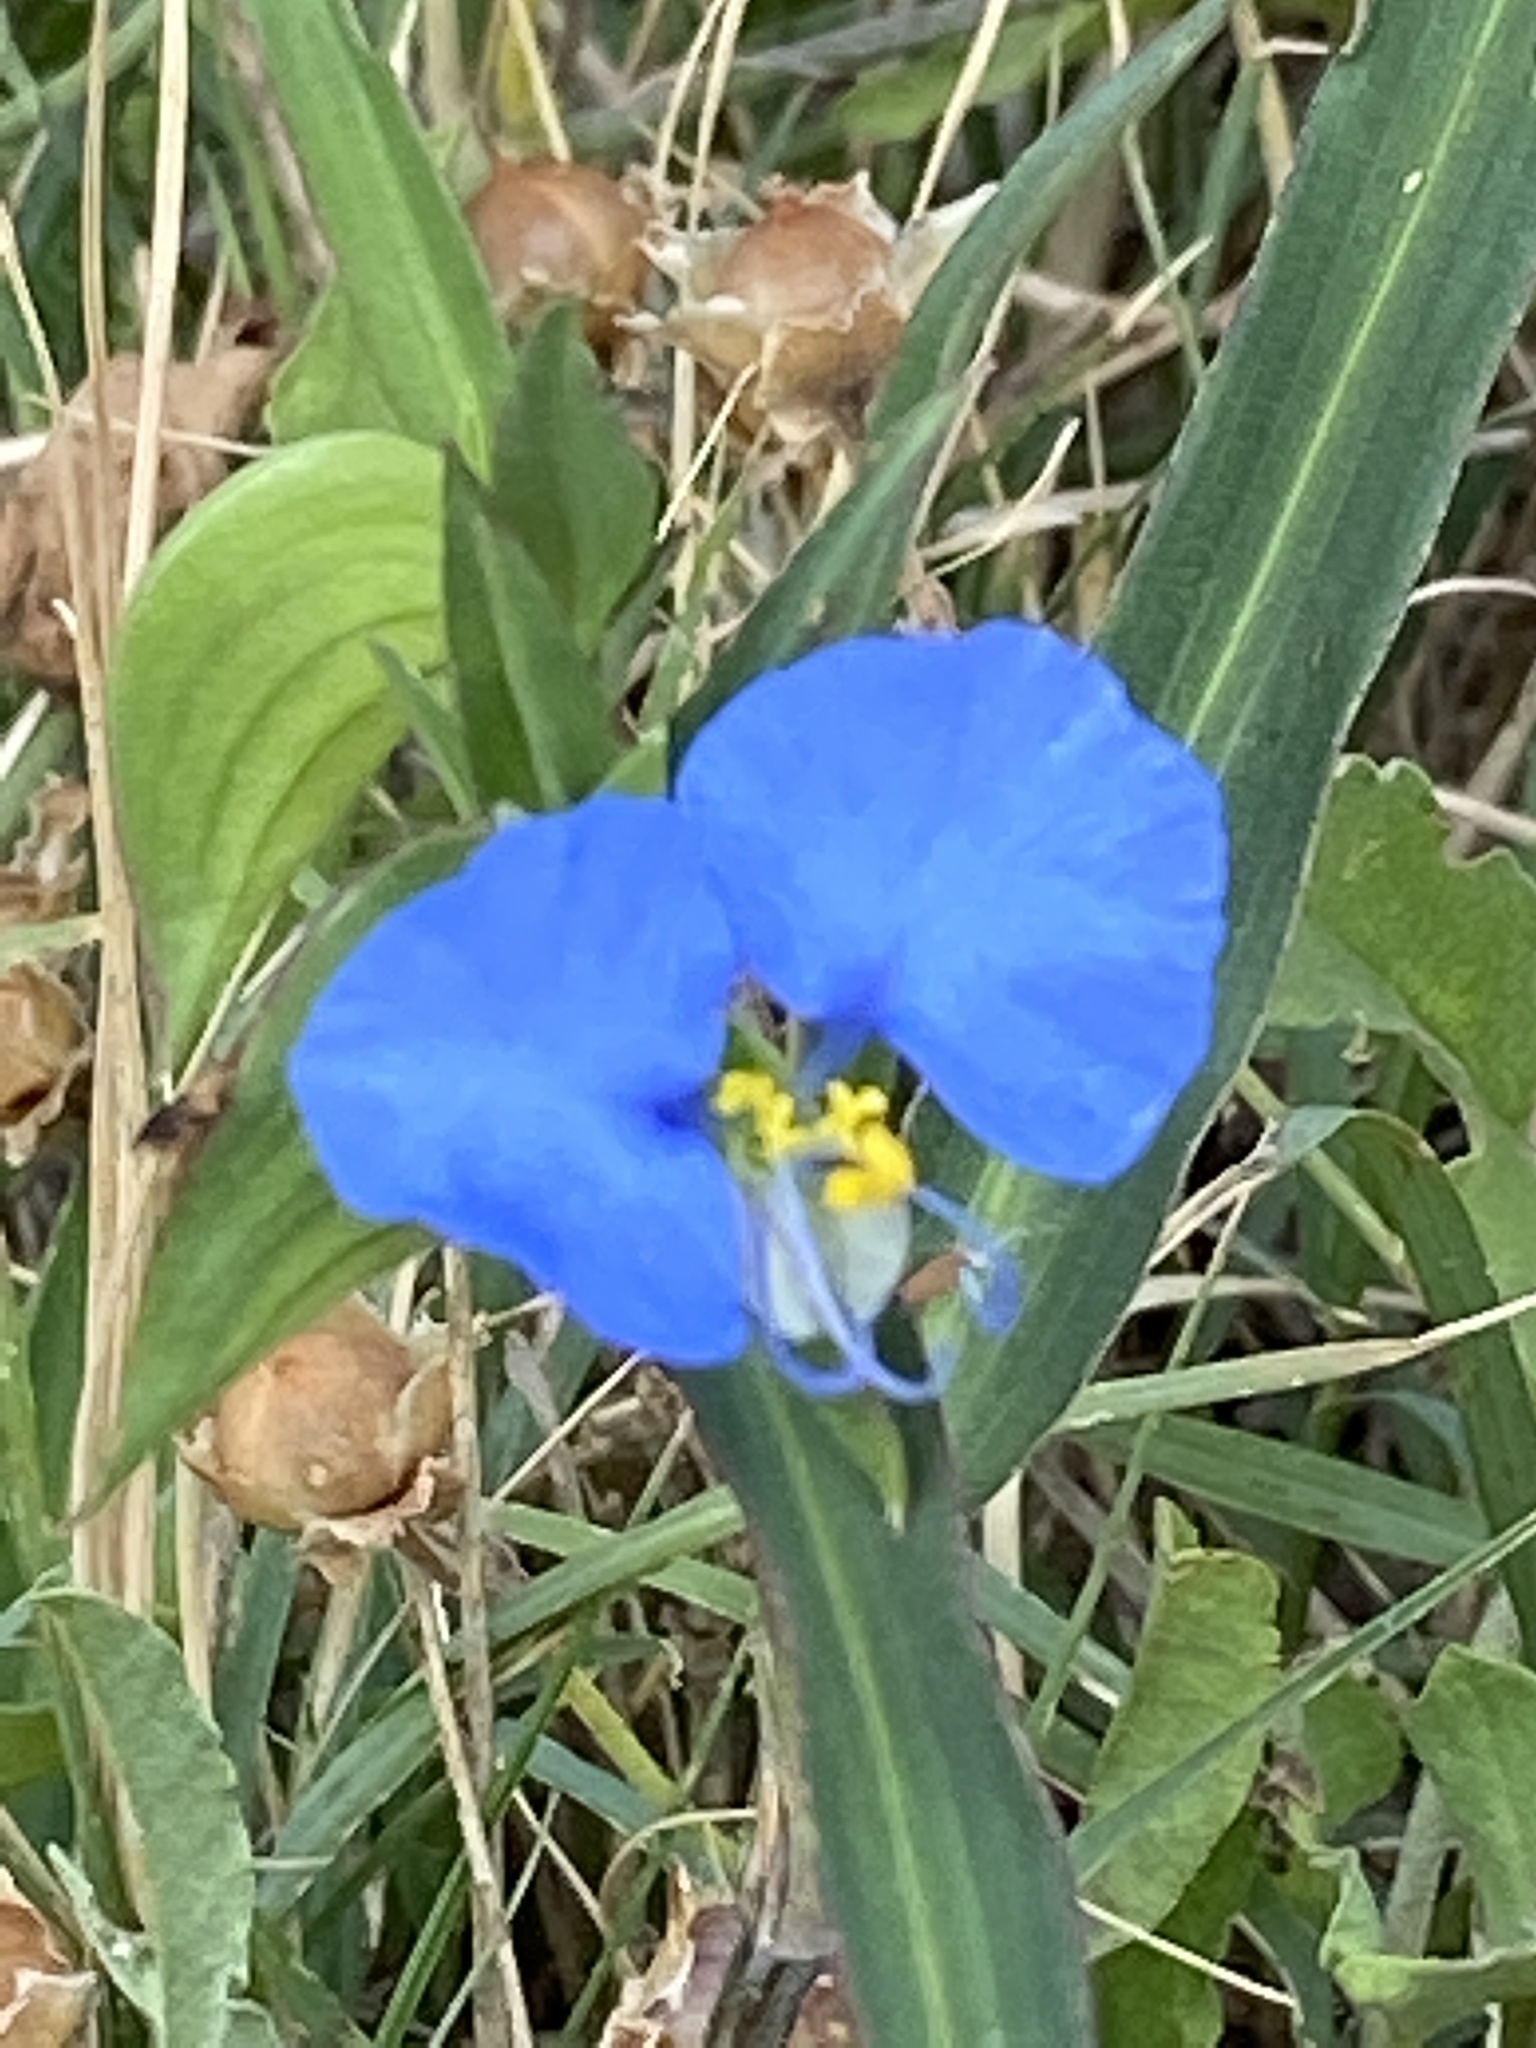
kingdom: Plantae
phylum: Tracheophyta
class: Liliopsida
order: Commelinales
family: Commelinaceae
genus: Commelina
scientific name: Commelina erecta
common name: Blousel blommetjie
